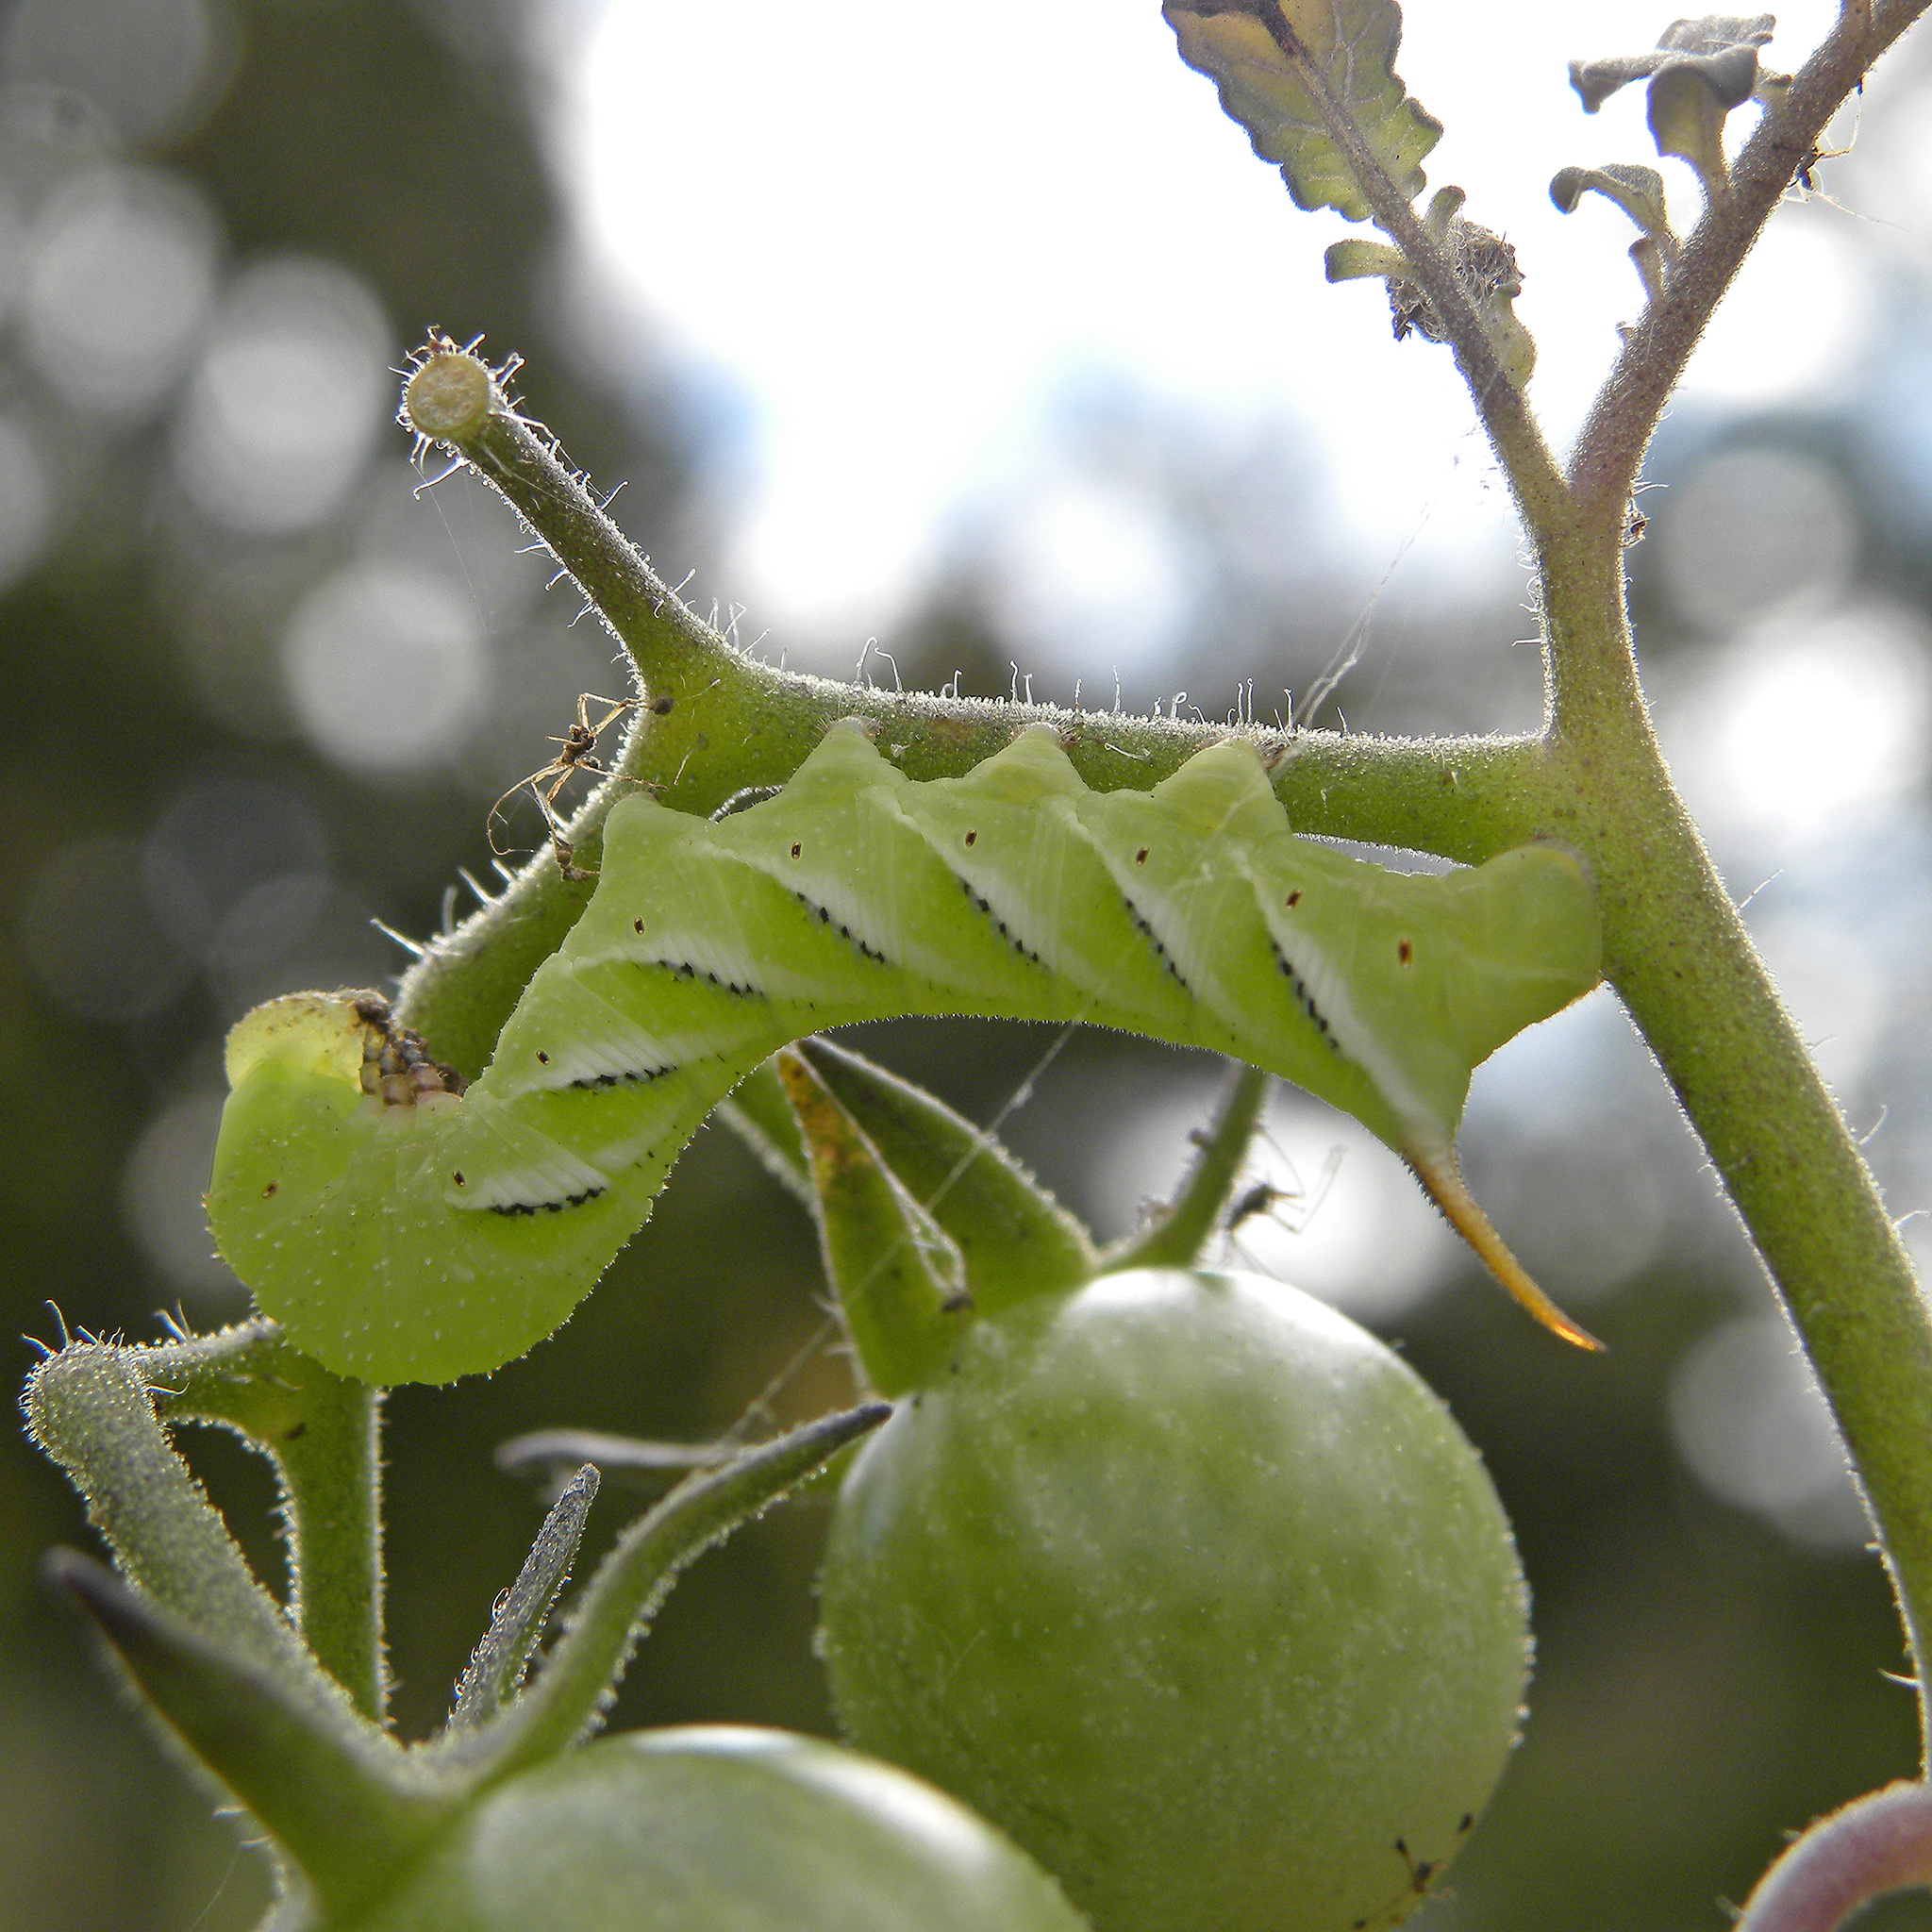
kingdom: Animalia
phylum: Arthropoda
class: Insecta
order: Lepidoptera
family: Sphingidae
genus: Manduca
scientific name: Manduca sexta
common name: Carolina sphinx
